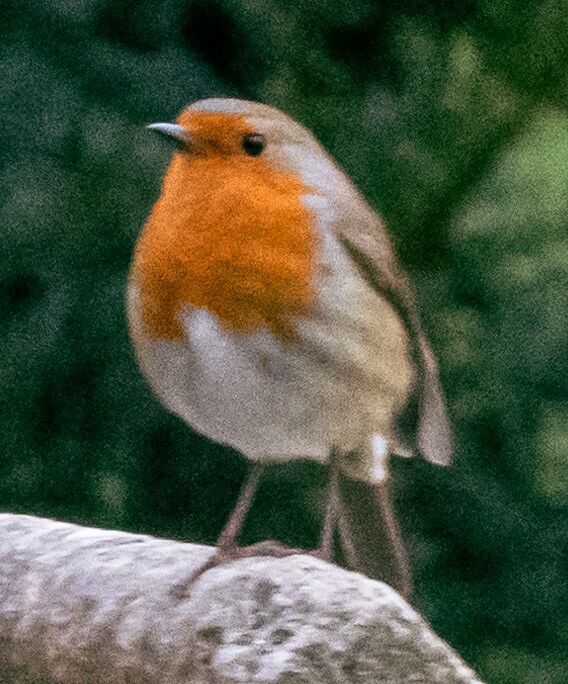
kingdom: Animalia
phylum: Chordata
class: Aves
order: Passeriformes
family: Muscicapidae
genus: Erithacus
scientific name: Erithacus rubecula
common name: European robin
